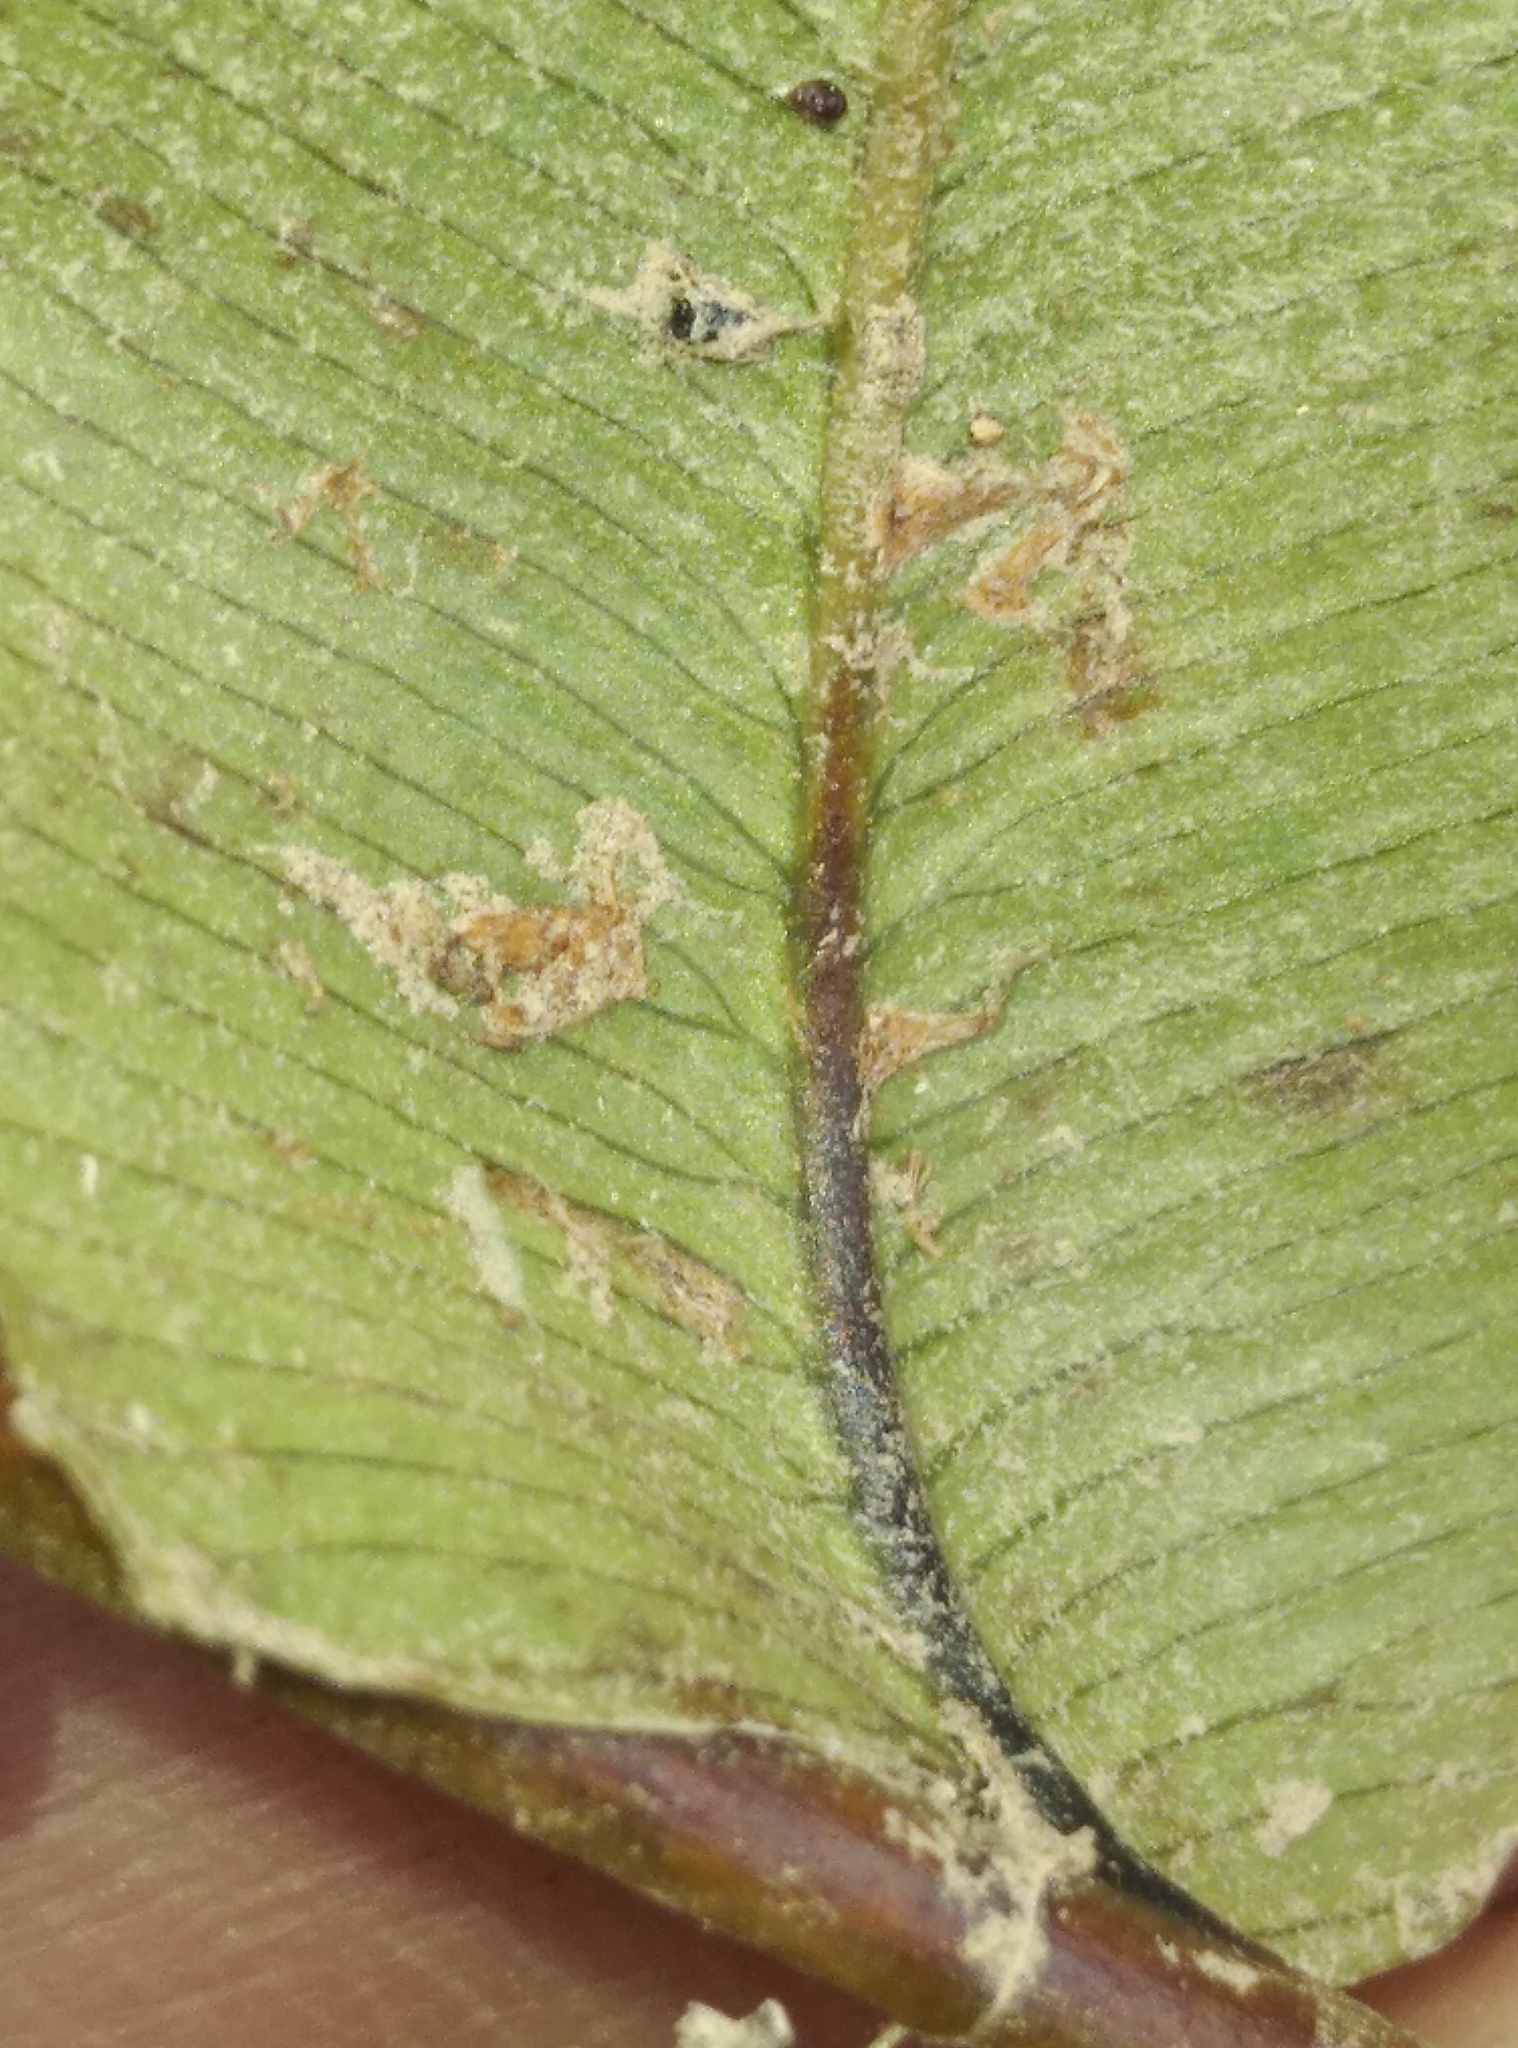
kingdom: Plantae
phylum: Tracheophyta
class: Polypodiopsida
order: Polypodiales
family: Blechnaceae
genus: Parablechnum
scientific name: Parablechnum minus
